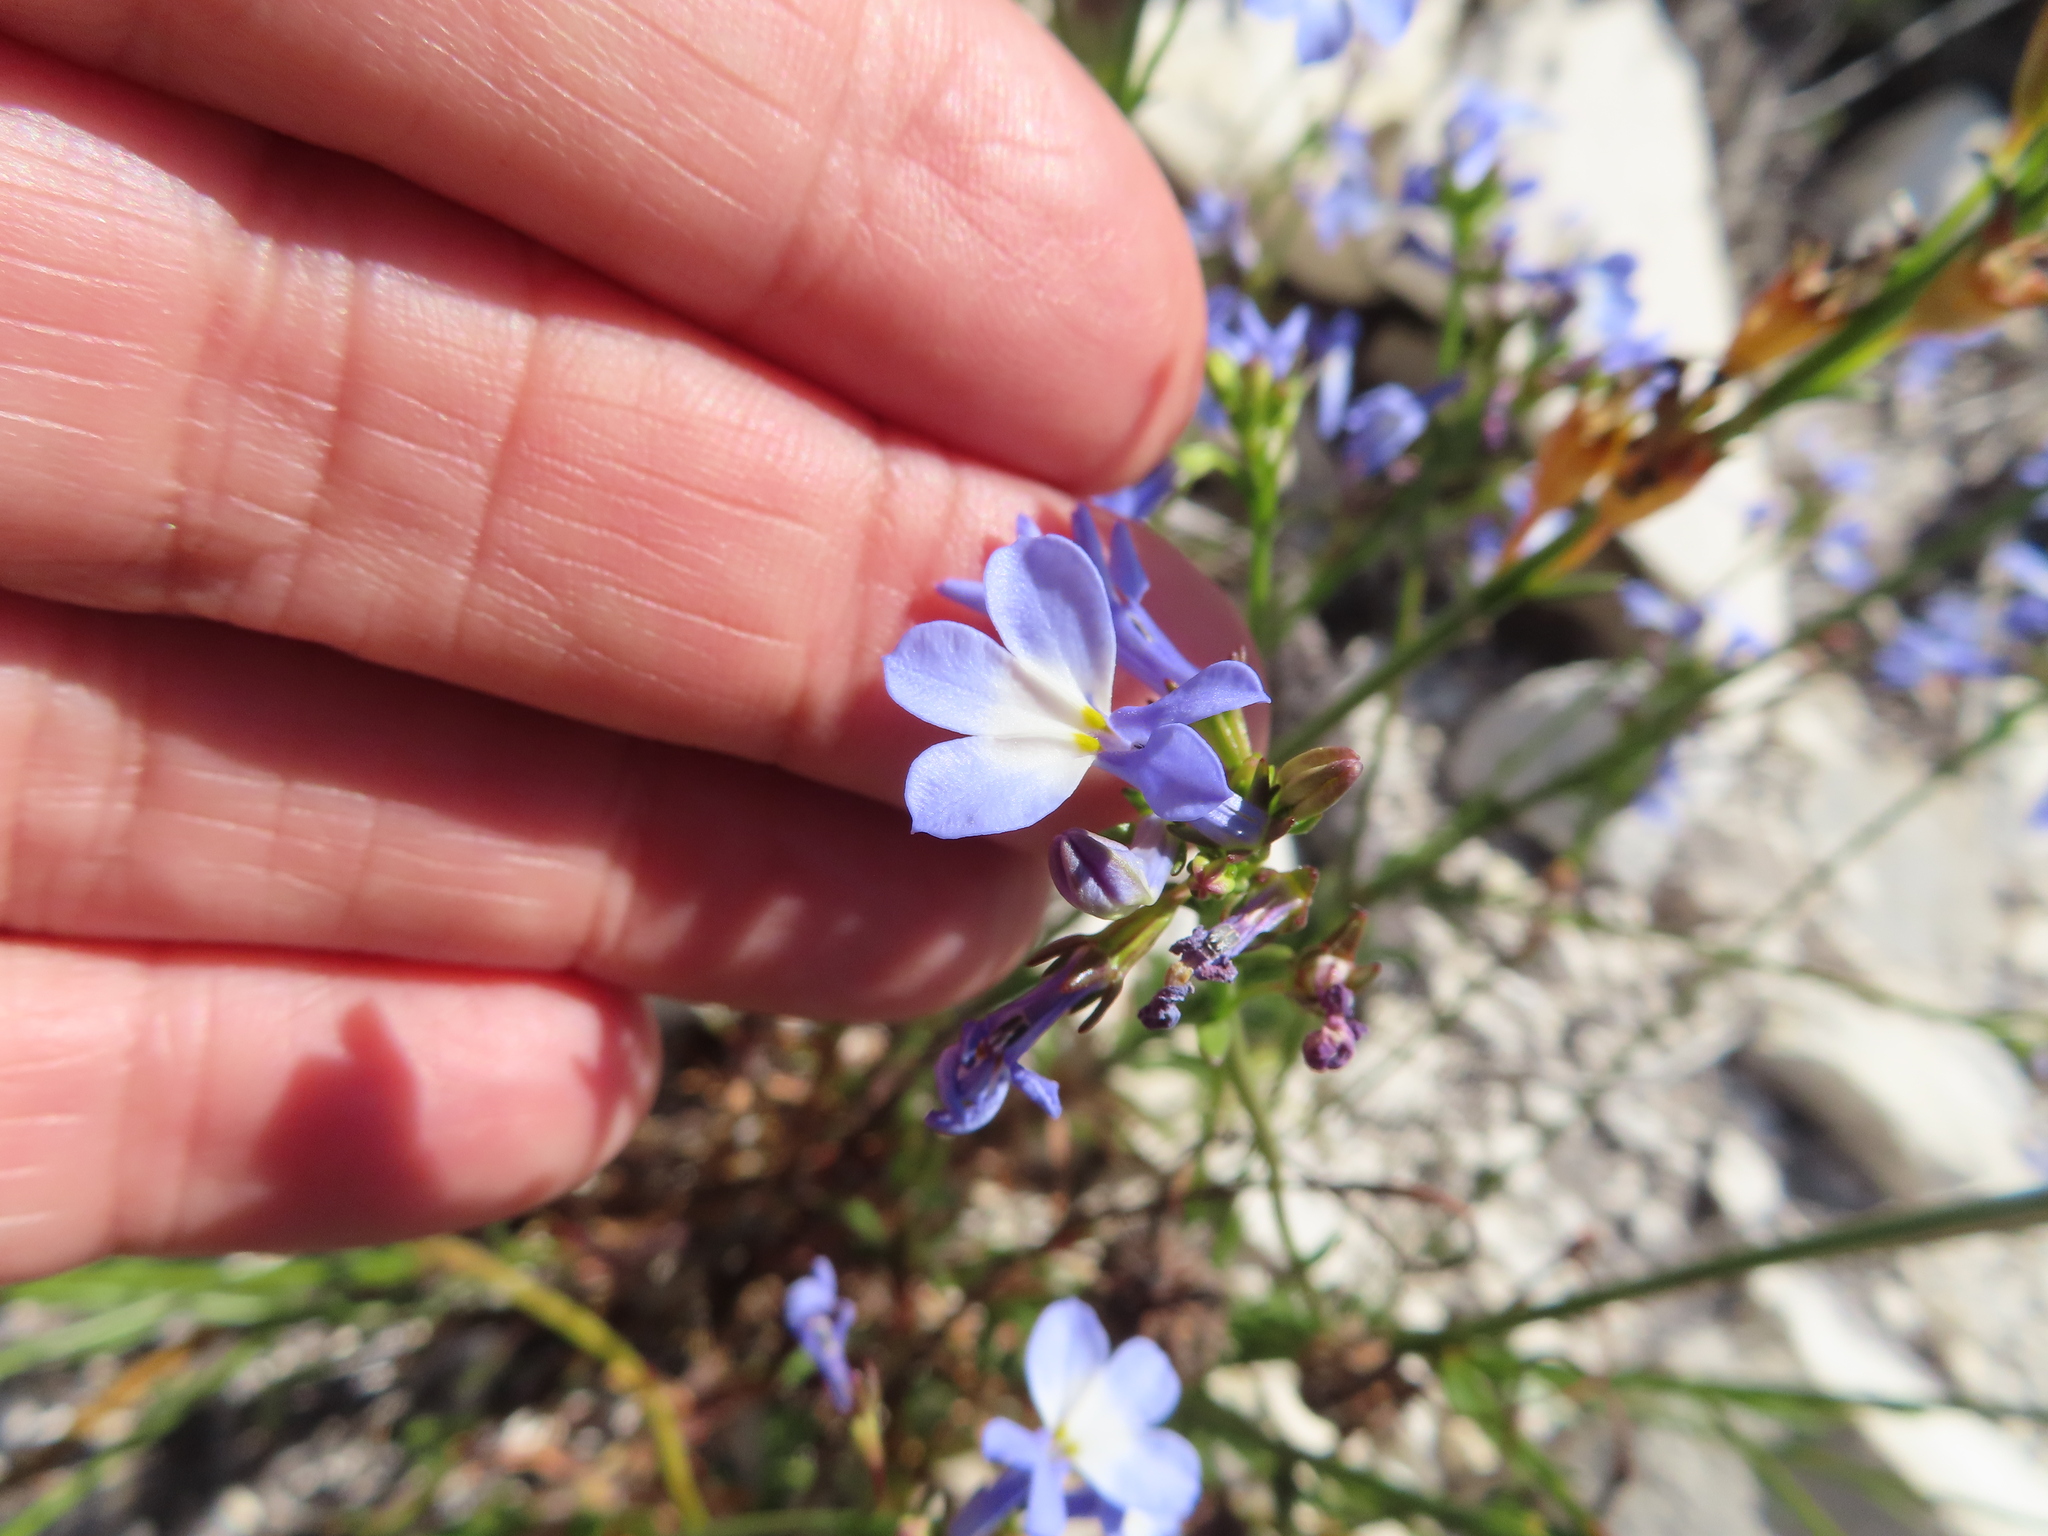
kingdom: Plantae
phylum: Tracheophyta
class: Magnoliopsida
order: Asterales
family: Campanulaceae
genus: Lobelia
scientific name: Lobelia comosa
